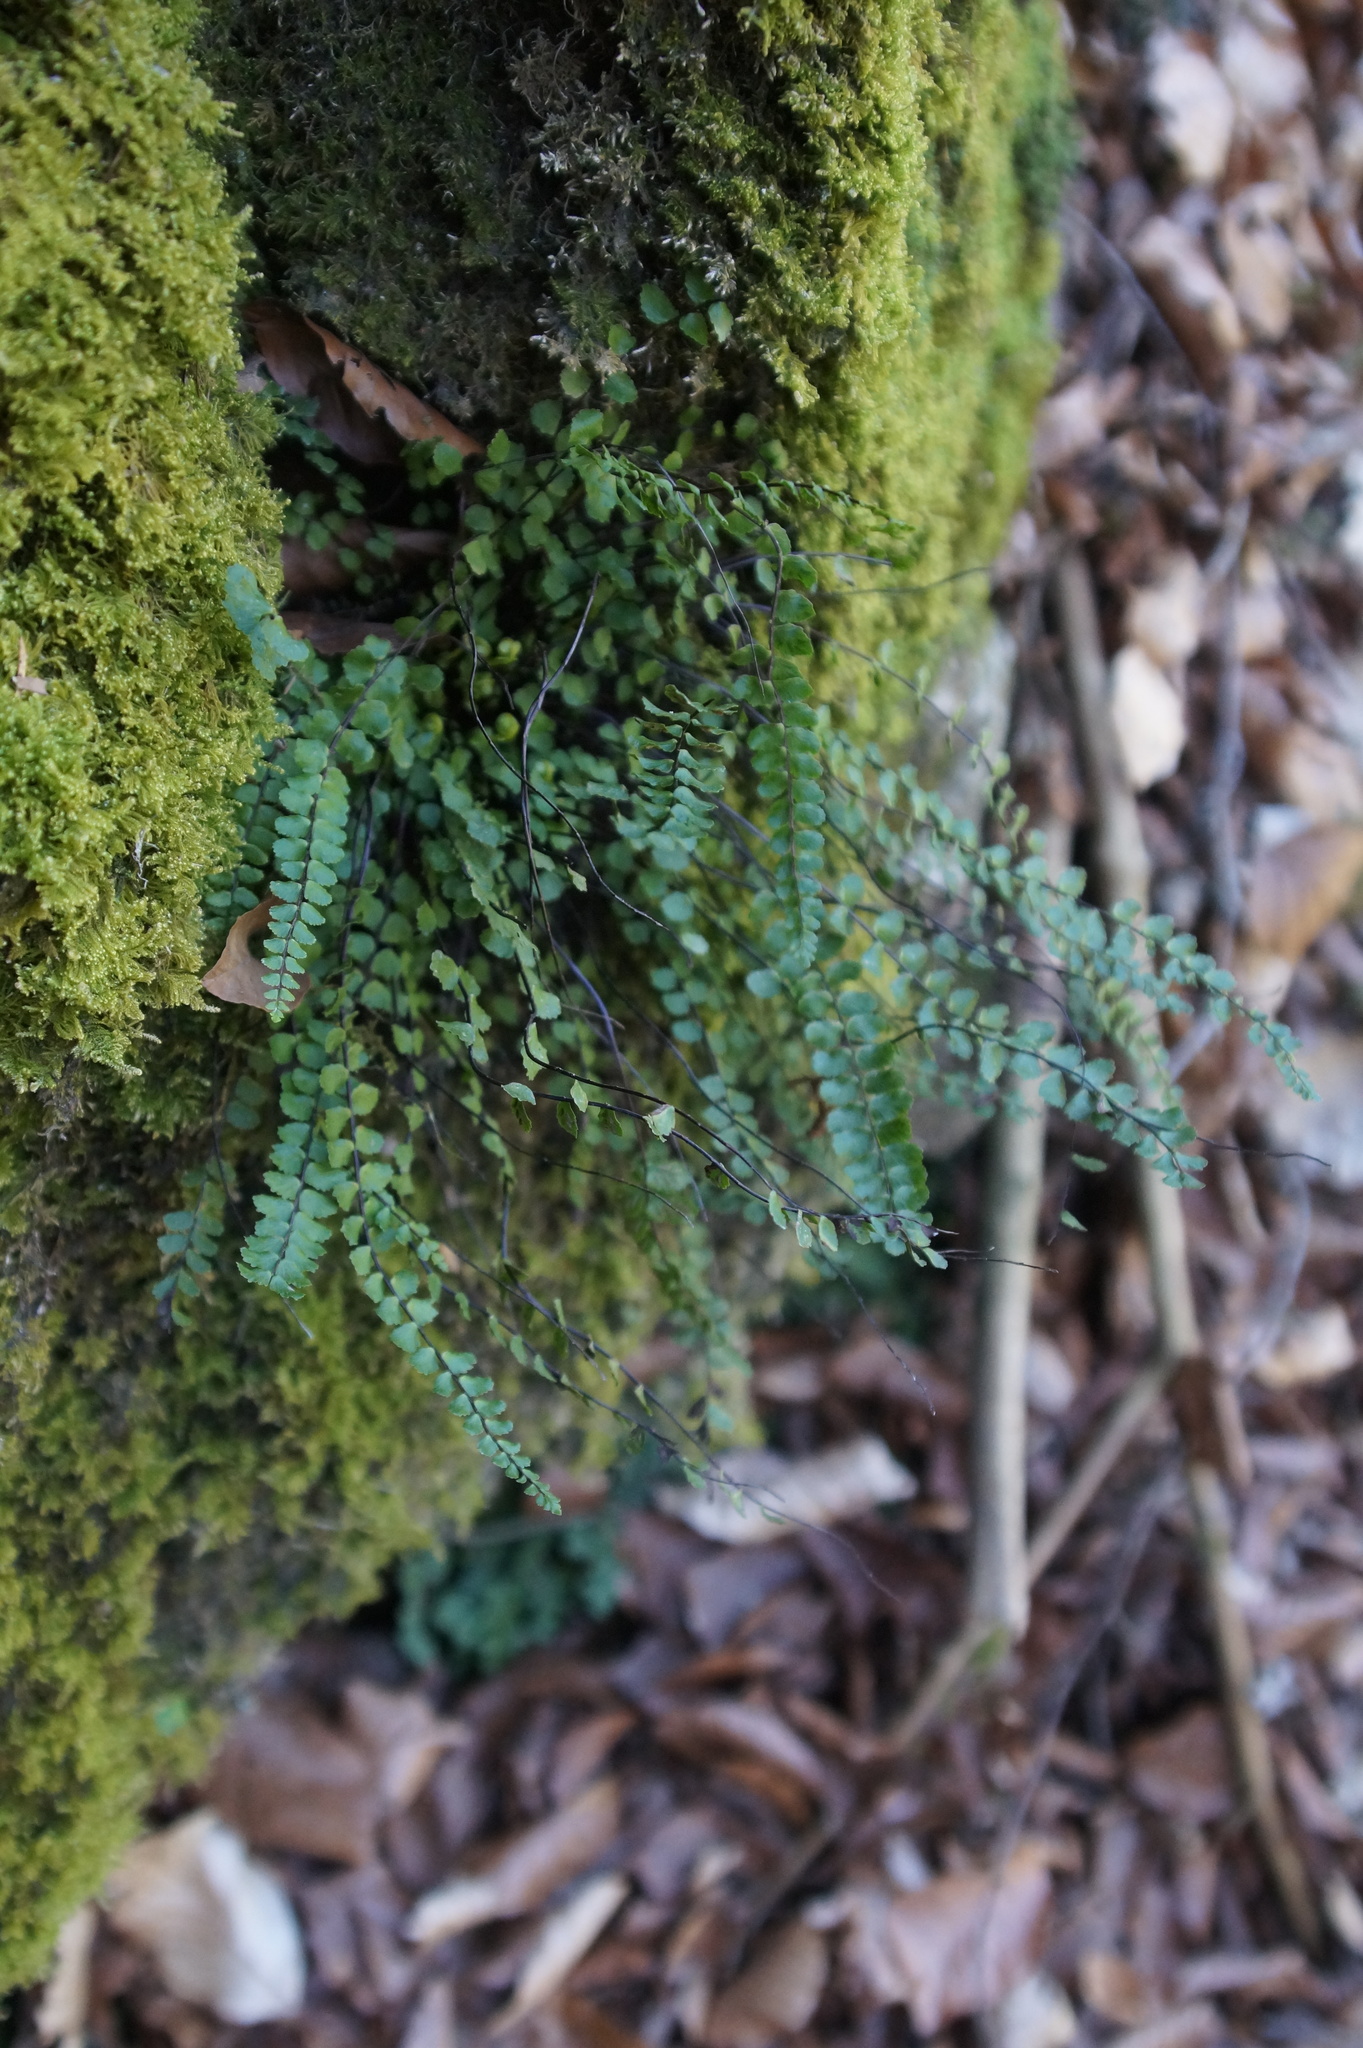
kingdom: Plantae
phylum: Tracheophyta
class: Polypodiopsida
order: Polypodiales
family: Aspleniaceae
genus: Asplenium
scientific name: Asplenium trichomanes
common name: Maidenhair spleenwort
